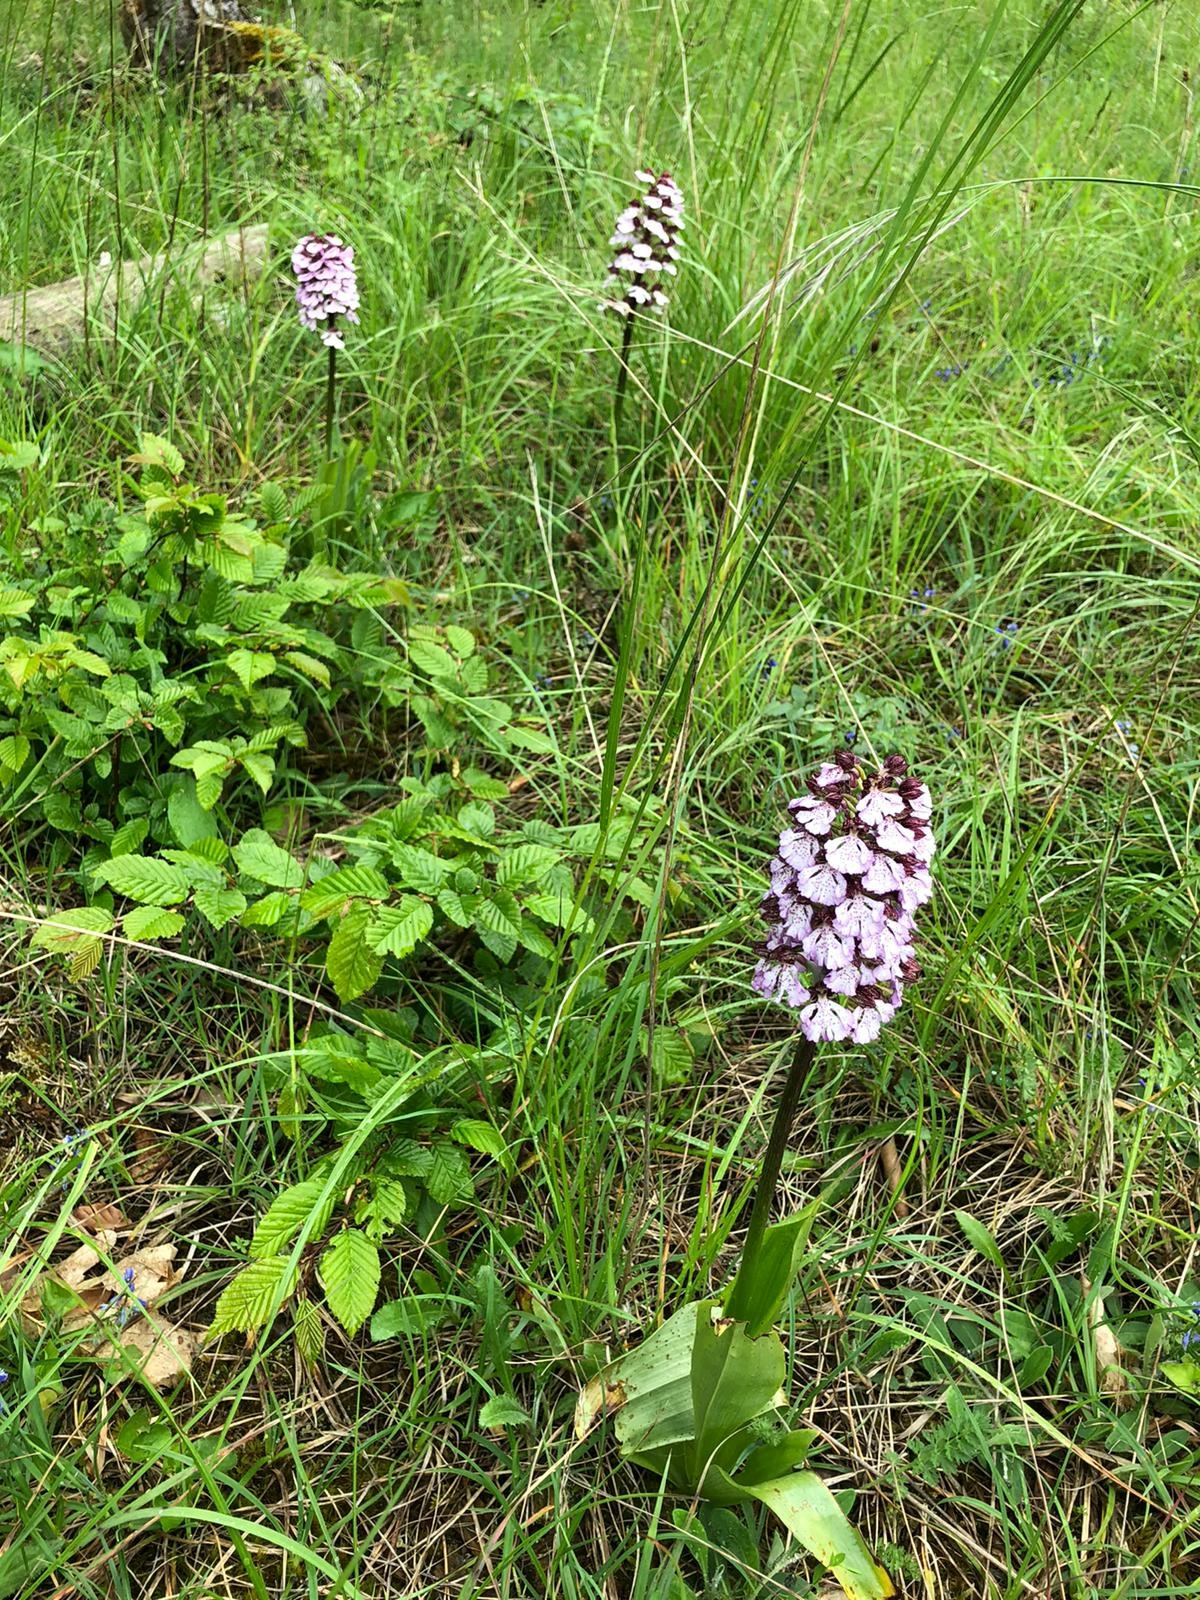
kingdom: Plantae
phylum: Tracheophyta
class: Liliopsida
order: Asparagales
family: Orchidaceae
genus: Orchis
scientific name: Orchis purpurea
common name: Lady orchid
